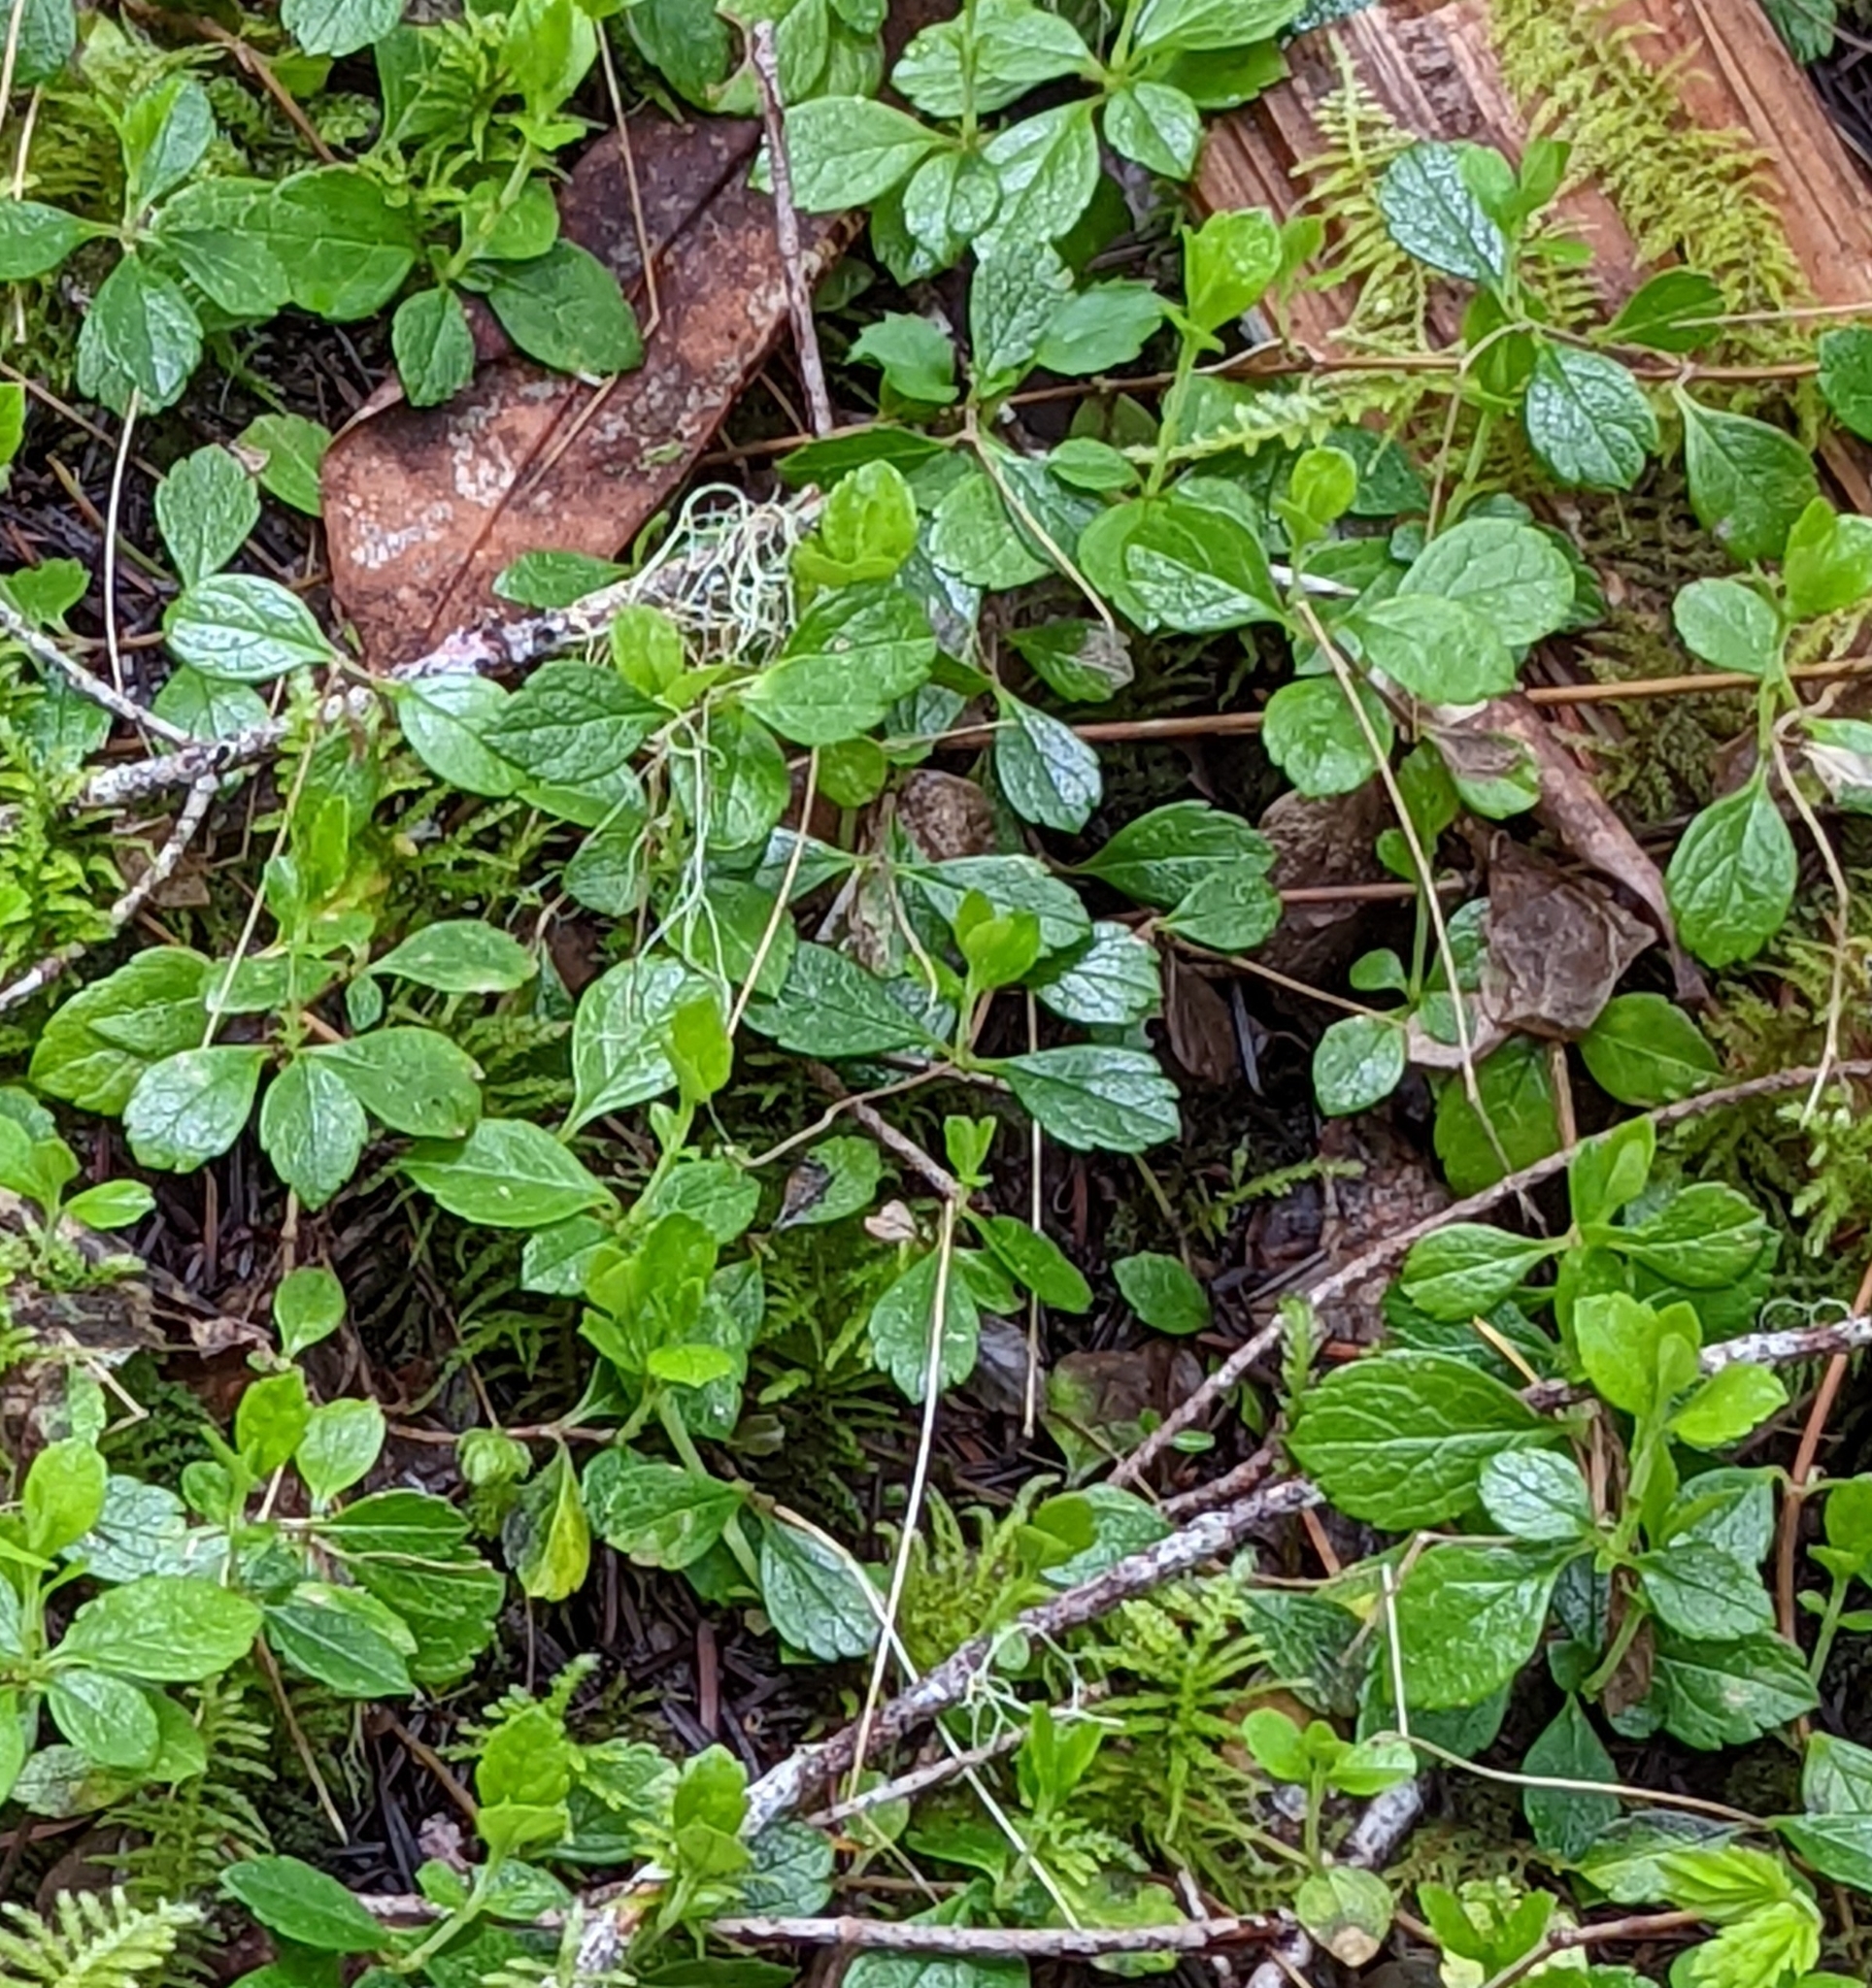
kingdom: Plantae
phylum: Tracheophyta
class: Magnoliopsida
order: Dipsacales
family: Caprifoliaceae
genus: Linnaea
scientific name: Linnaea borealis
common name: Twinflower
